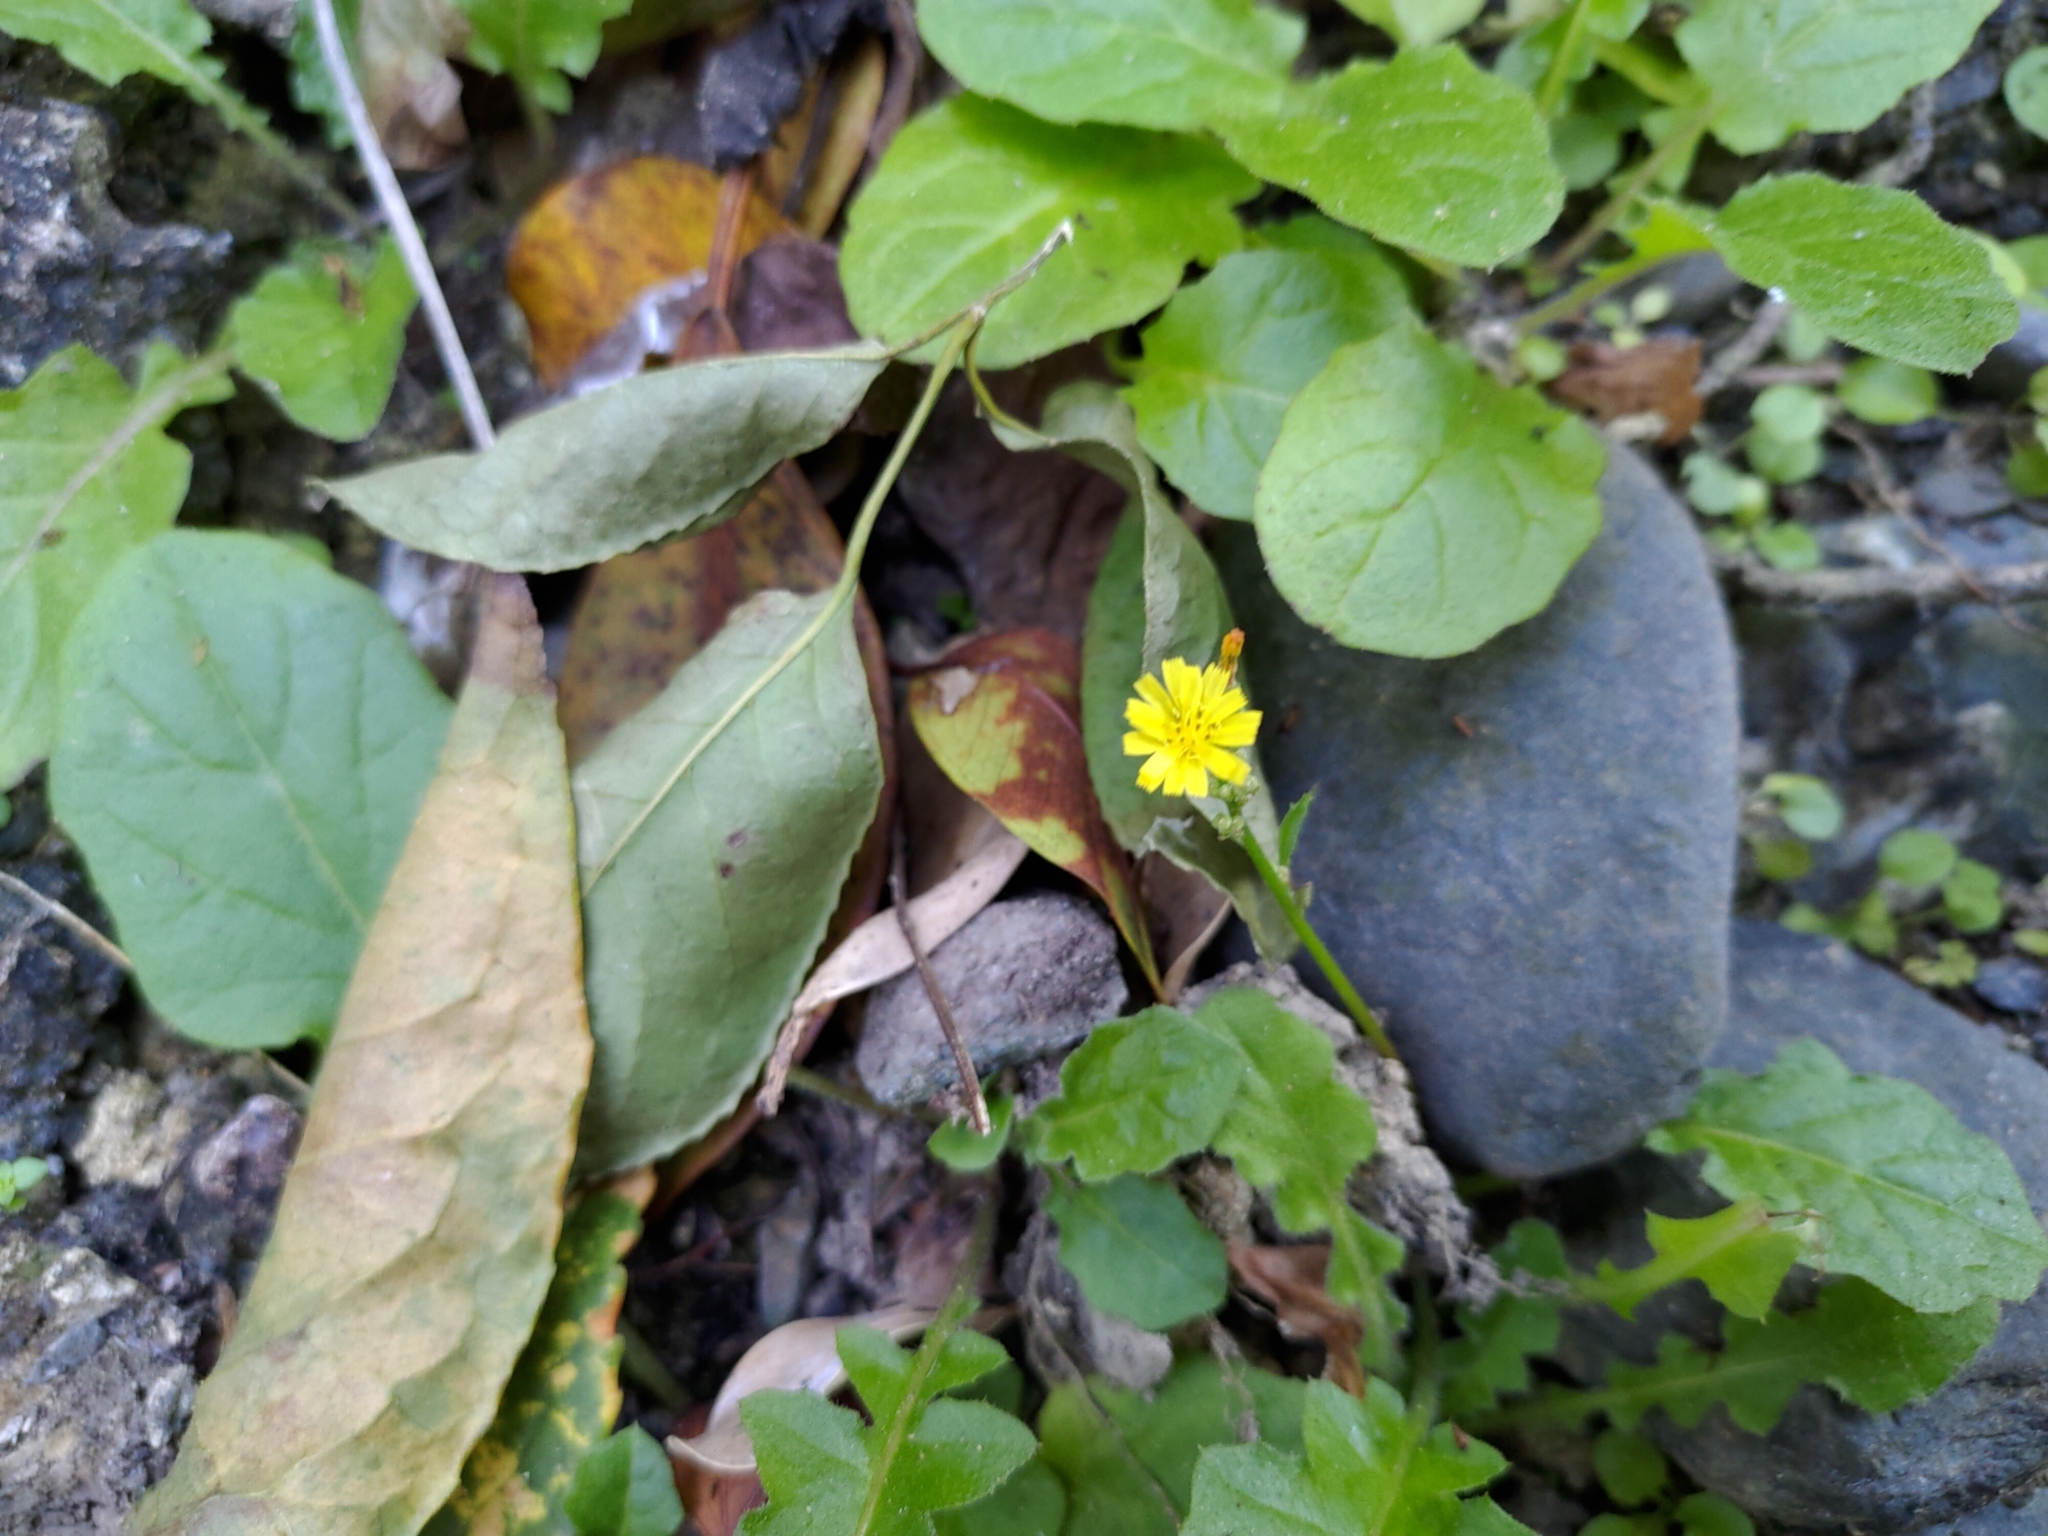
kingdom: Plantae
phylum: Tracheophyta
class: Magnoliopsida
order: Asterales
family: Asteraceae
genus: Youngia
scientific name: Youngia japonica
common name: Oriental false hawksbeard
